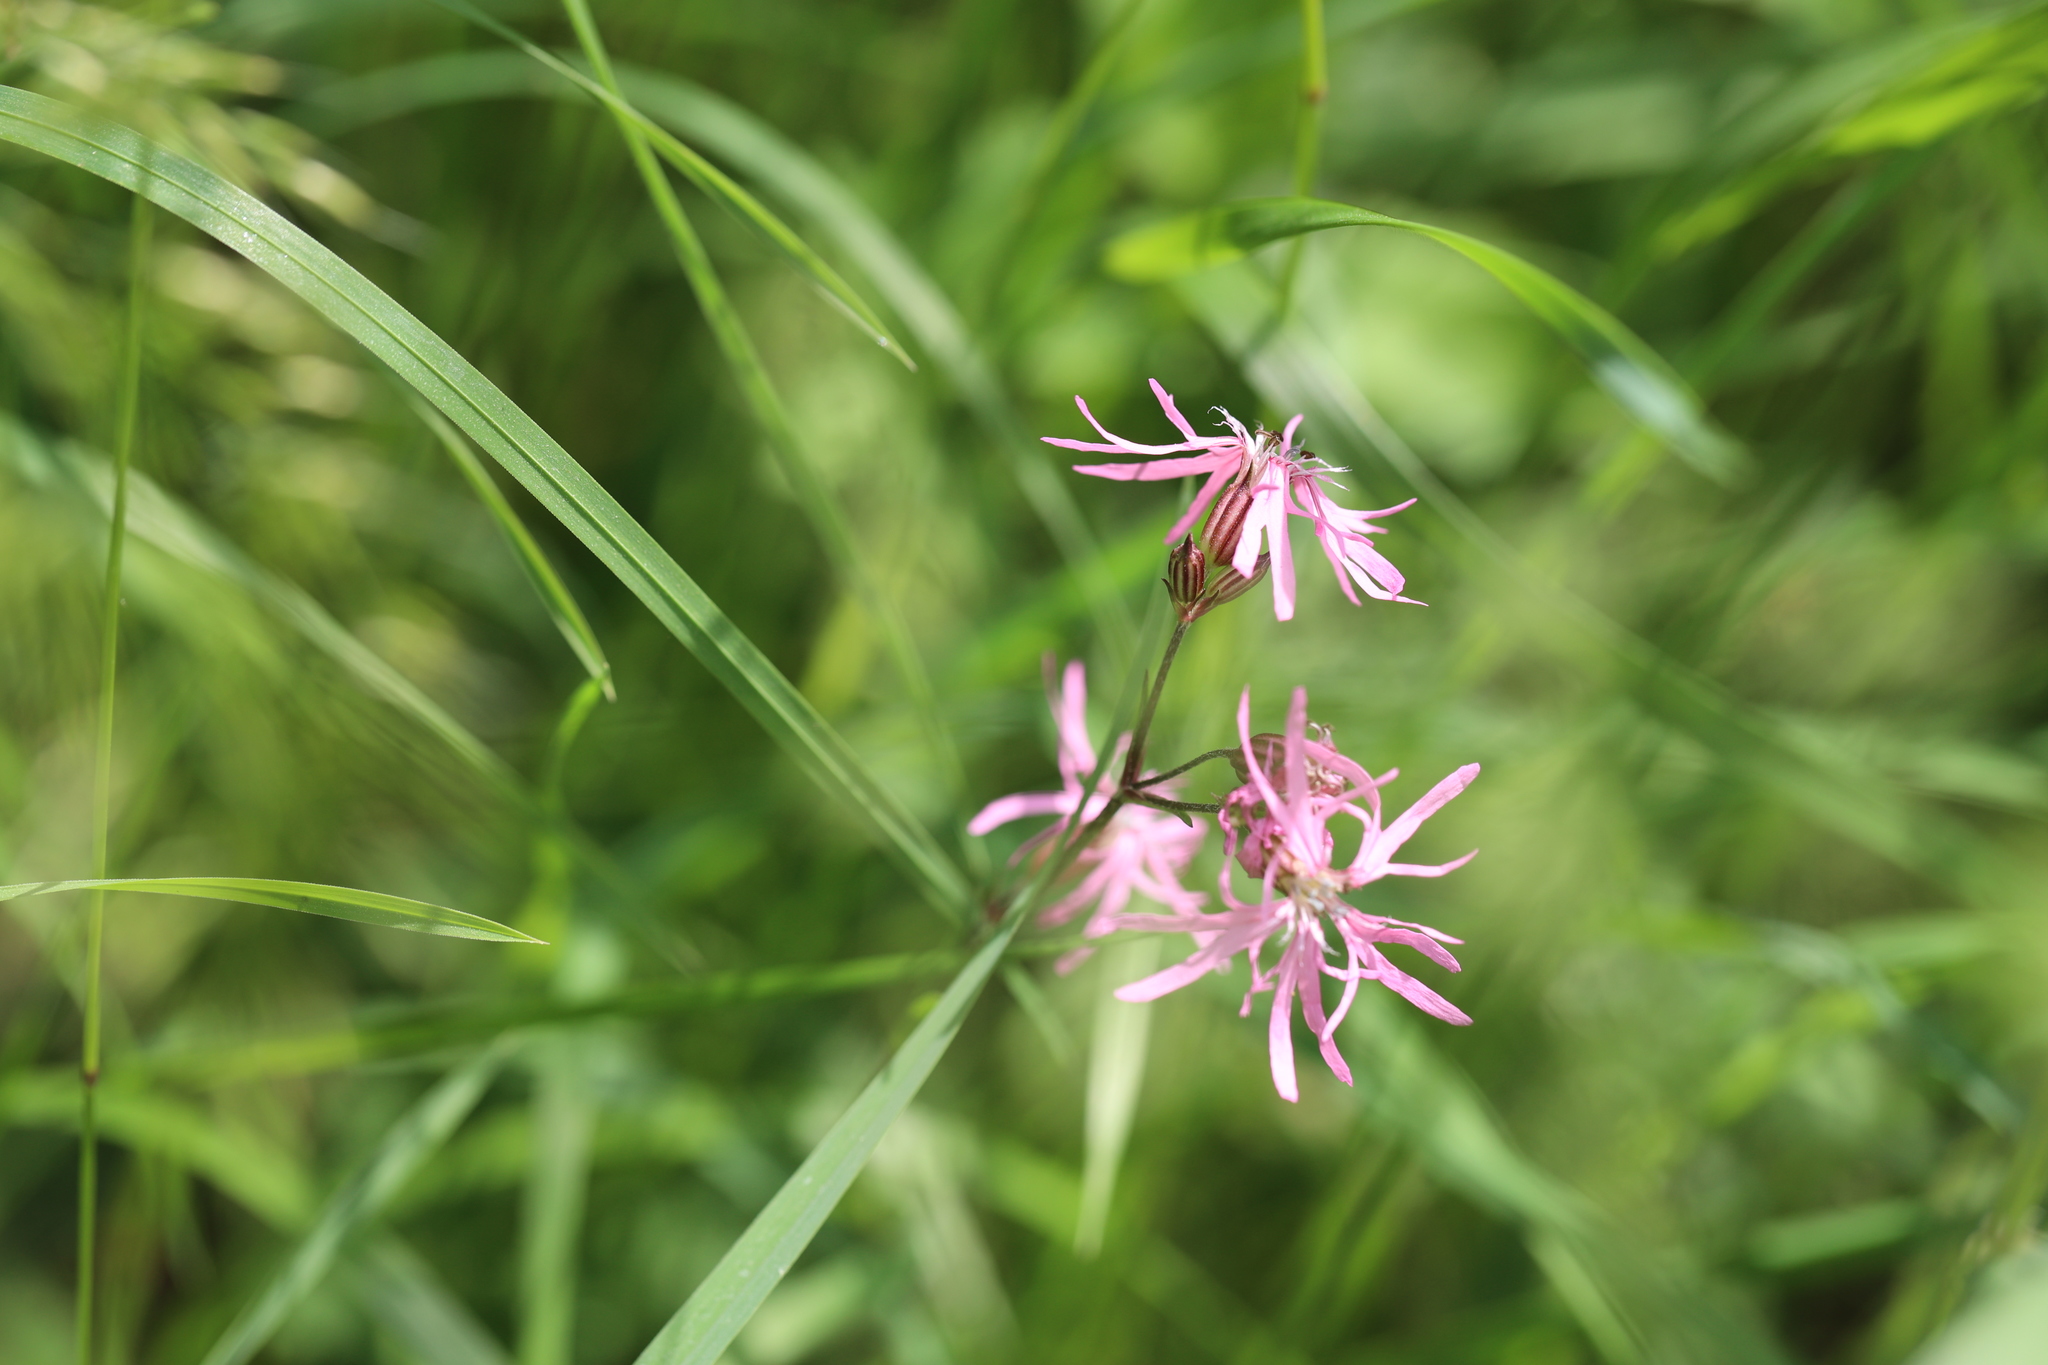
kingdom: Plantae
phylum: Tracheophyta
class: Magnoliopsida
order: Caryophyllales
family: Caryophyllaceae
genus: Silene
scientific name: Silene flos-cuculi
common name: Ragged-robin
